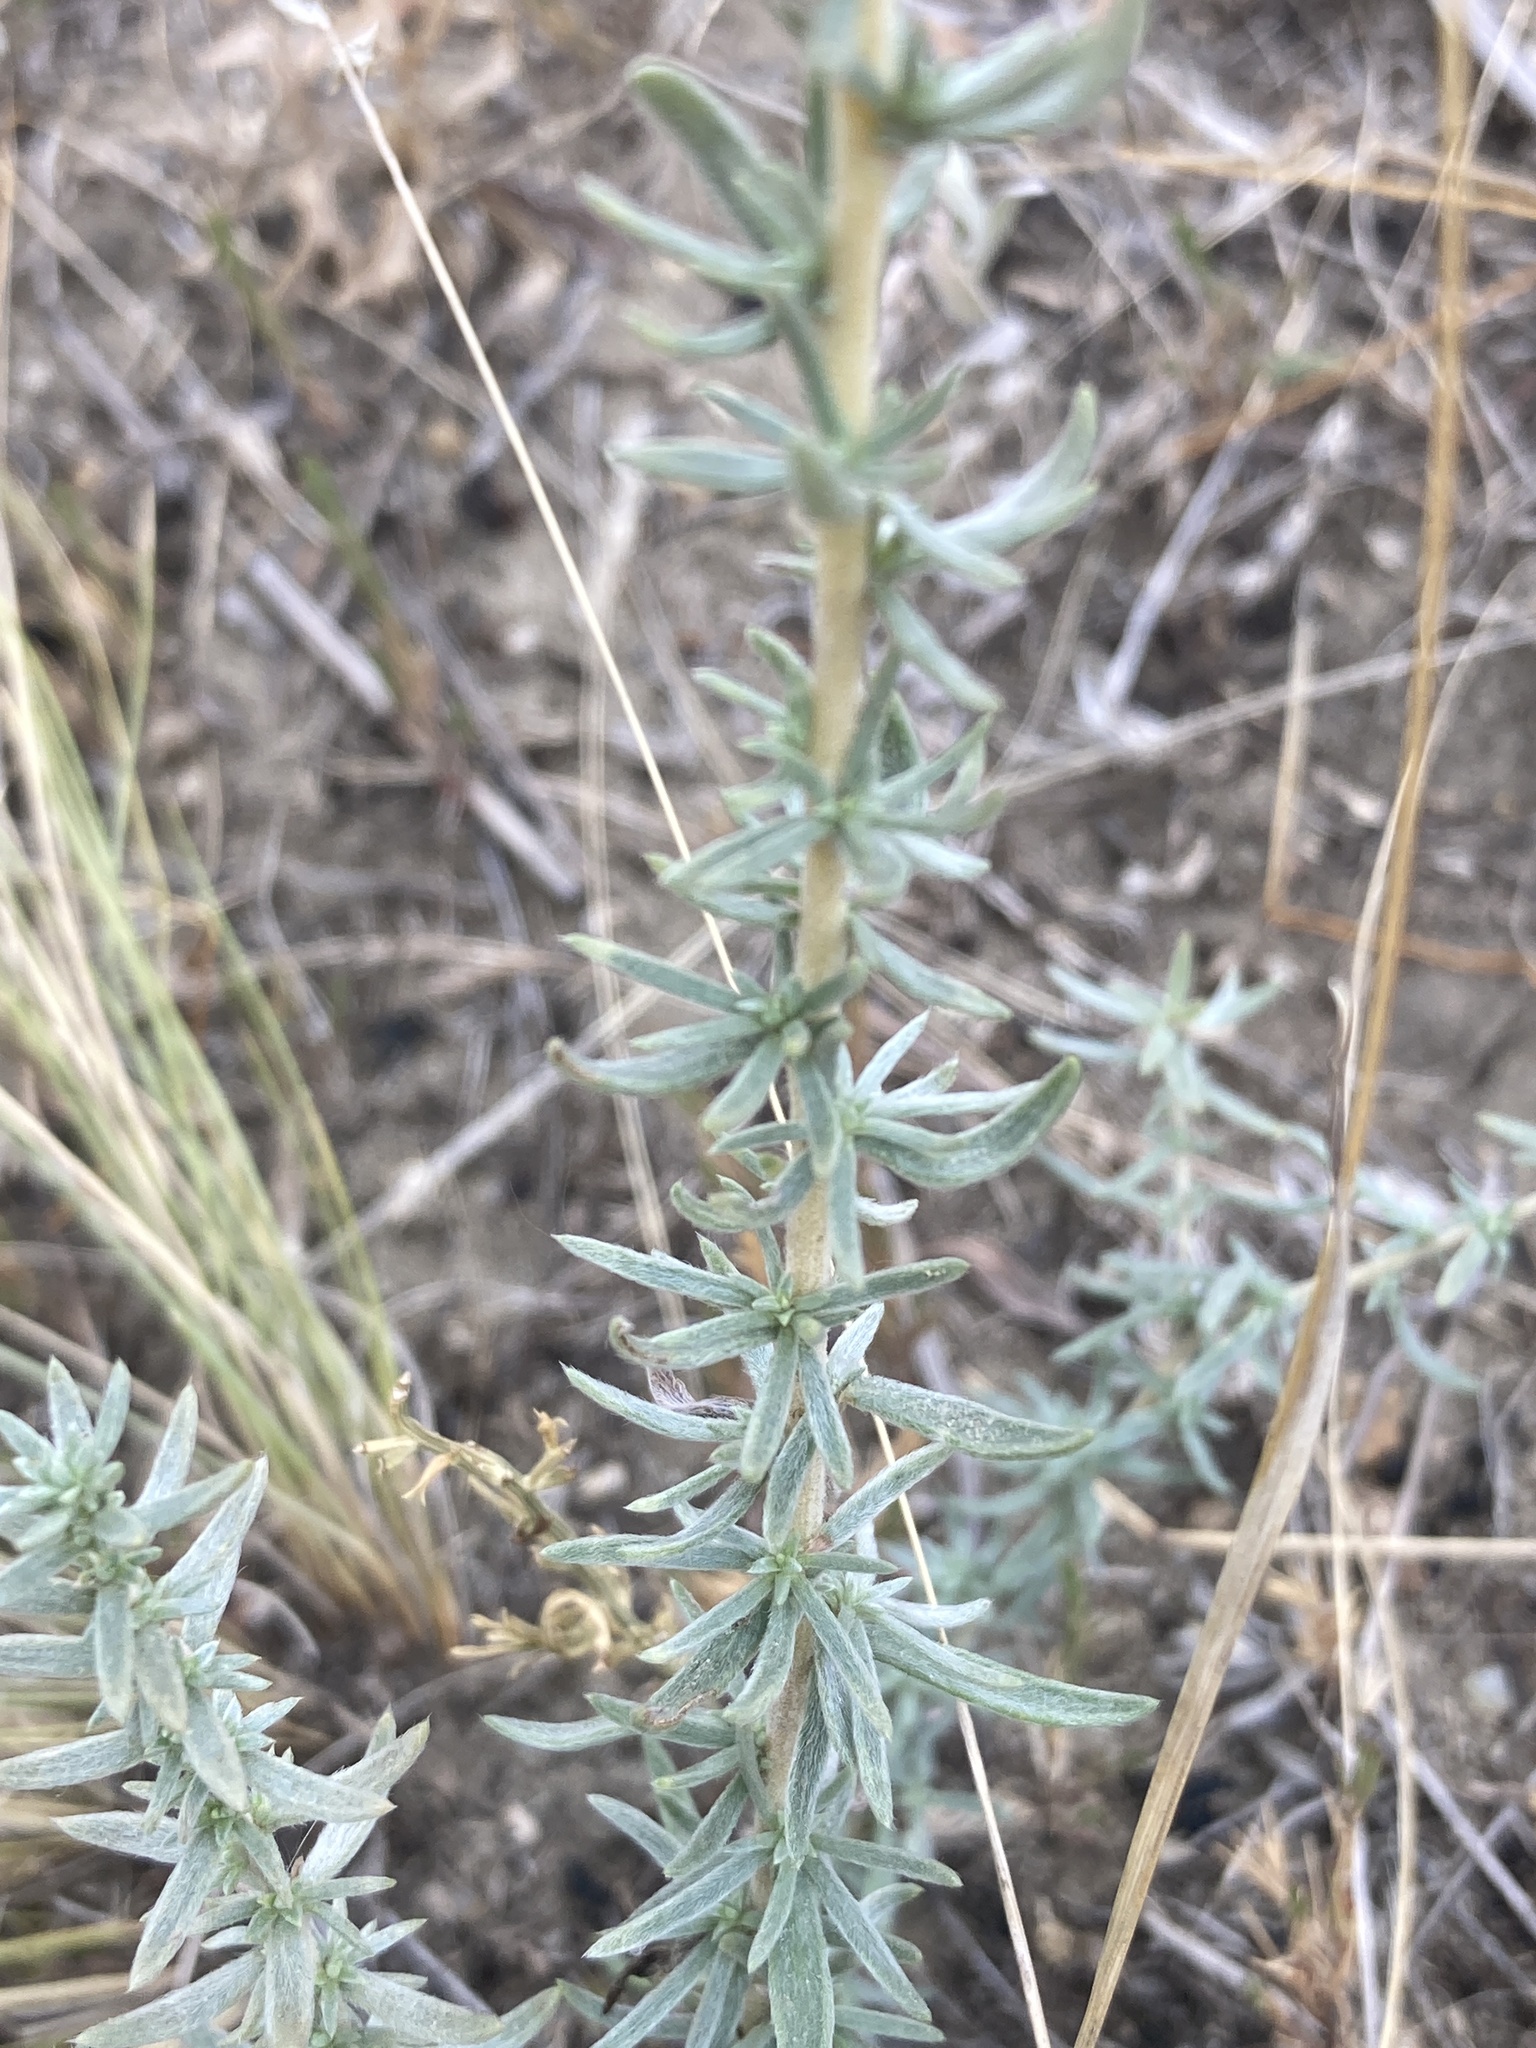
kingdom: Plantae
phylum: Tracheophyta
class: Magnoliopsida
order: Caryophyllales
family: Amaranthaceae
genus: Bassia
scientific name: Bassia prostrata
